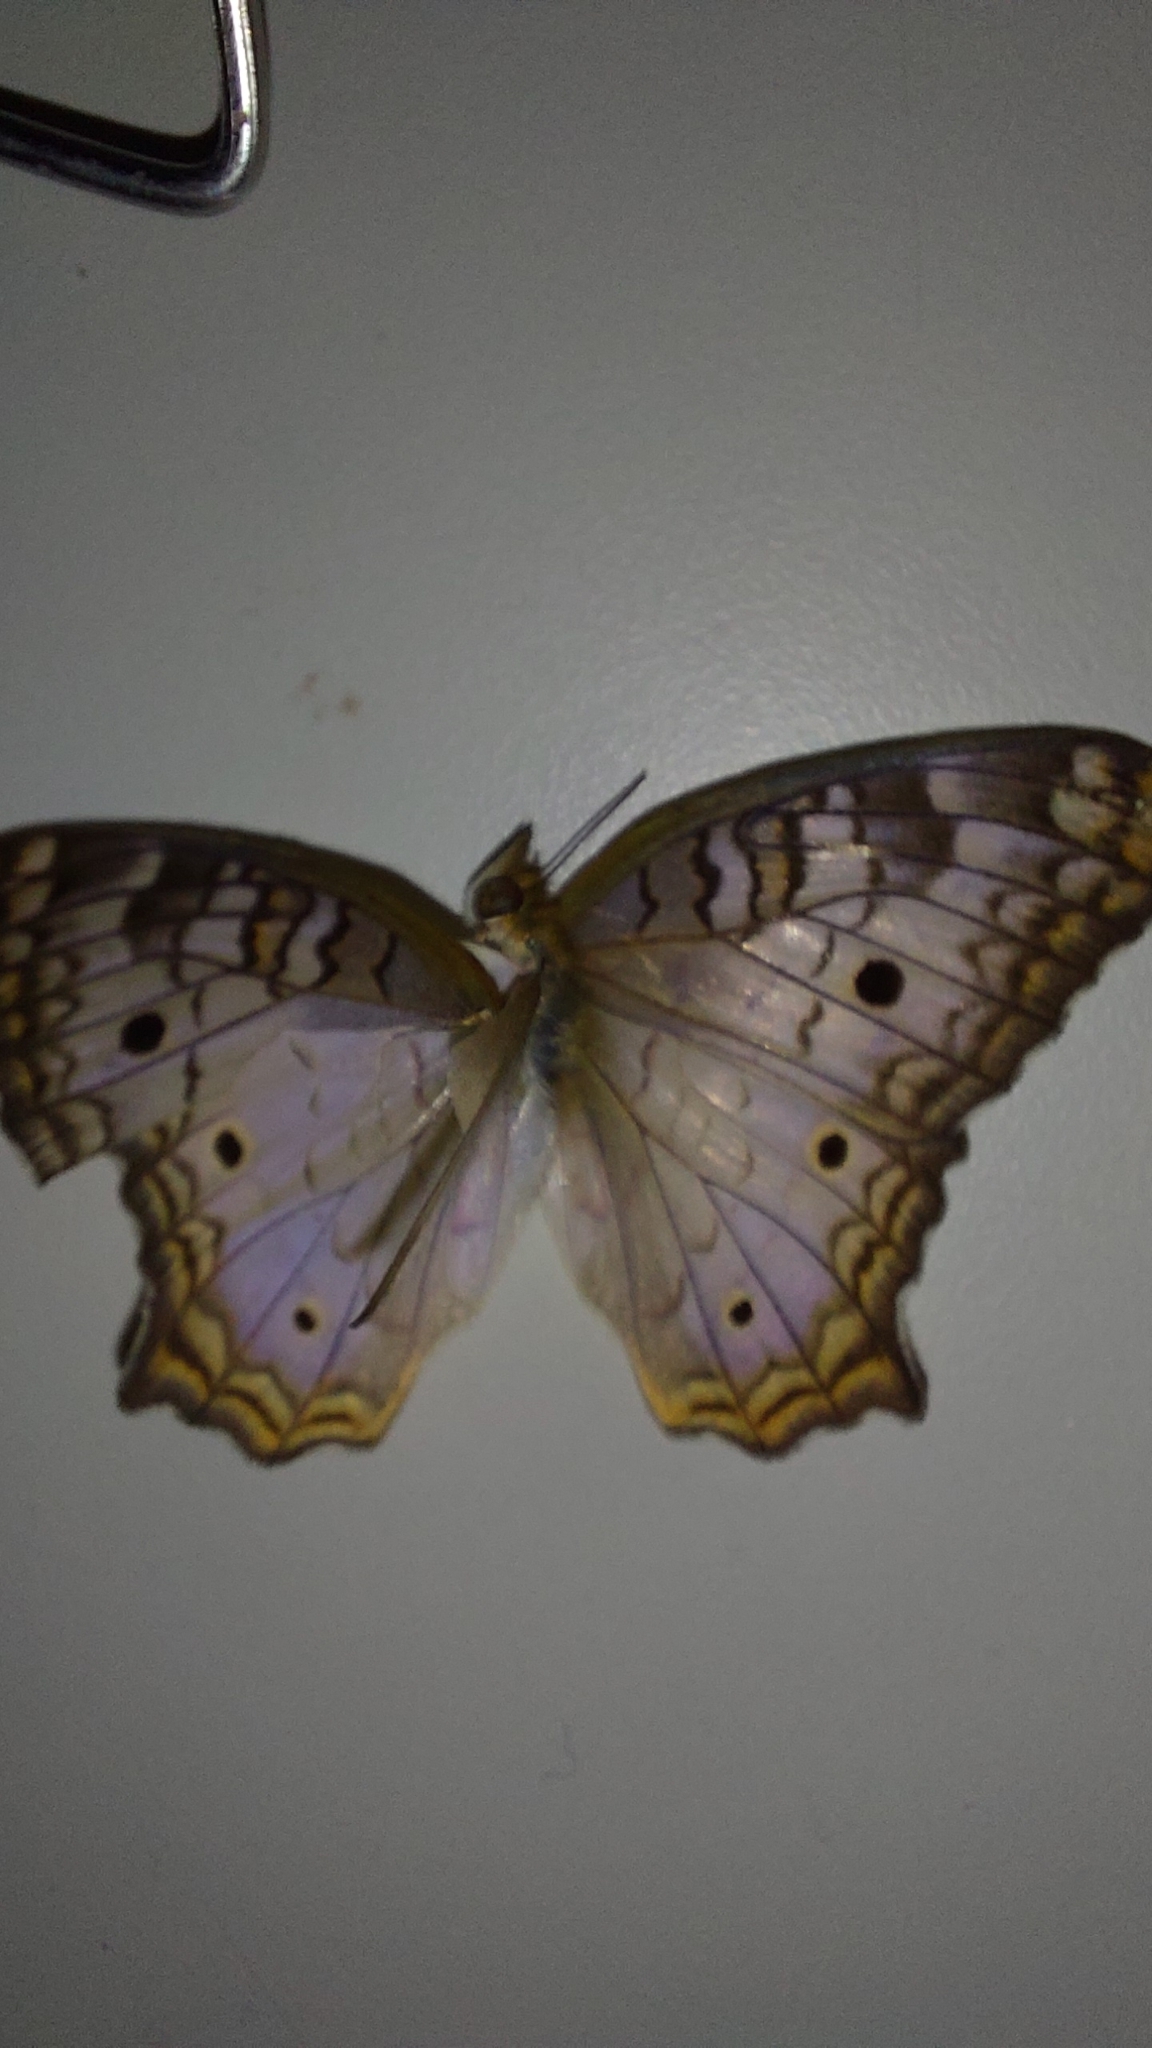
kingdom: Animalia
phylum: Arthropoda
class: Insecta
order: Lepidoptera
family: Nymphalidae
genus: Anartia
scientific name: Anartia jatrophae
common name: White peacock
